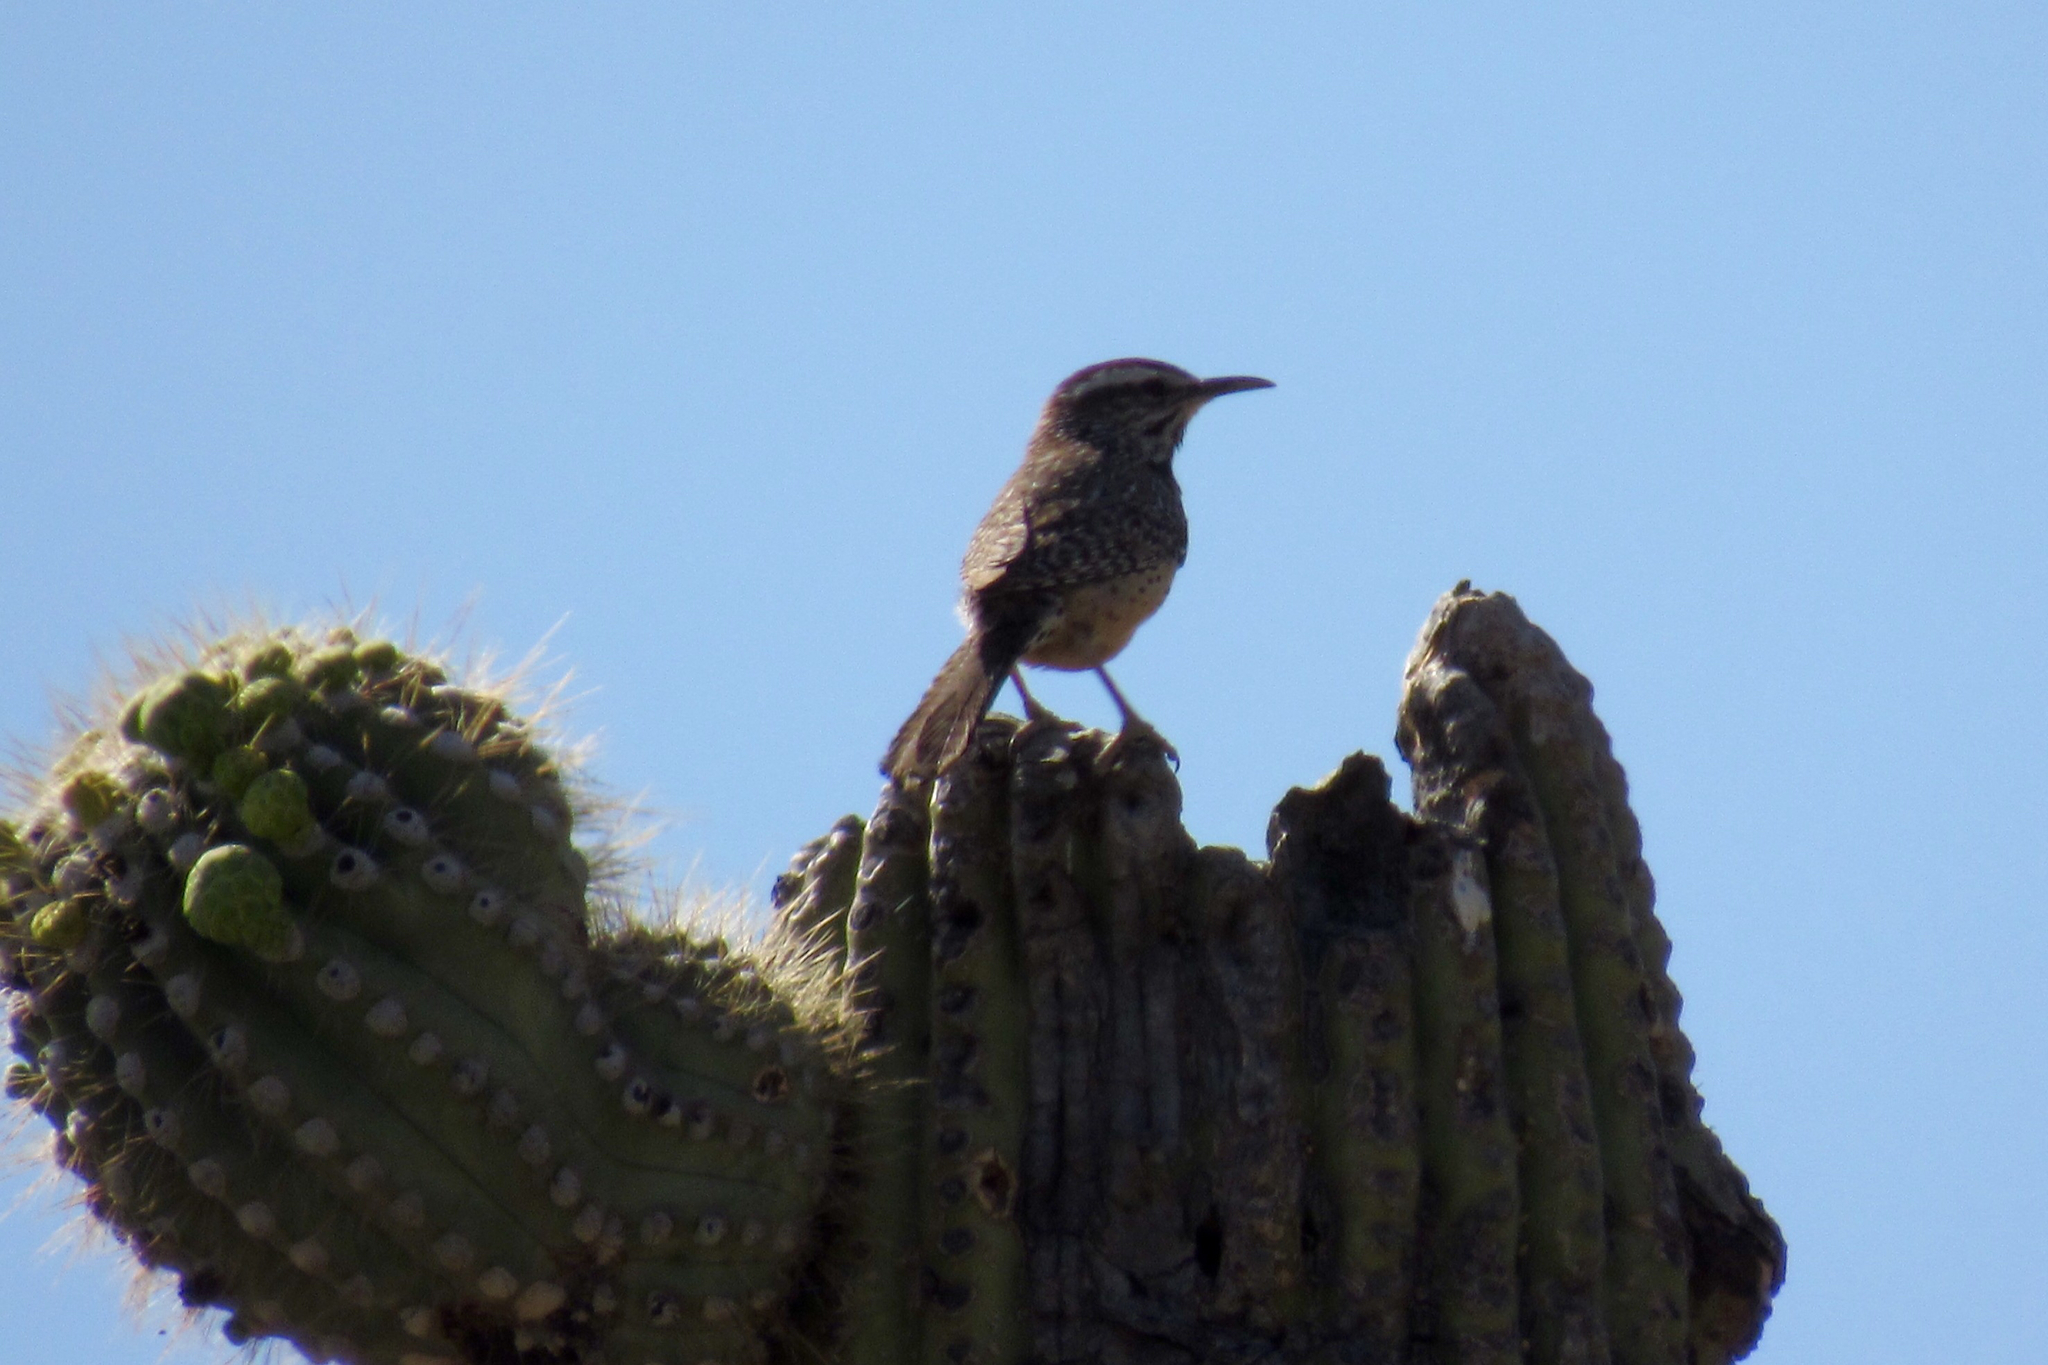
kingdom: Animalia
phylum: Chordata
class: Aves
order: Passeriformes
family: Troglodytidae
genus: Campylorhynchus
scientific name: Campylorhynchus brunneicapillus
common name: Cactus wren
